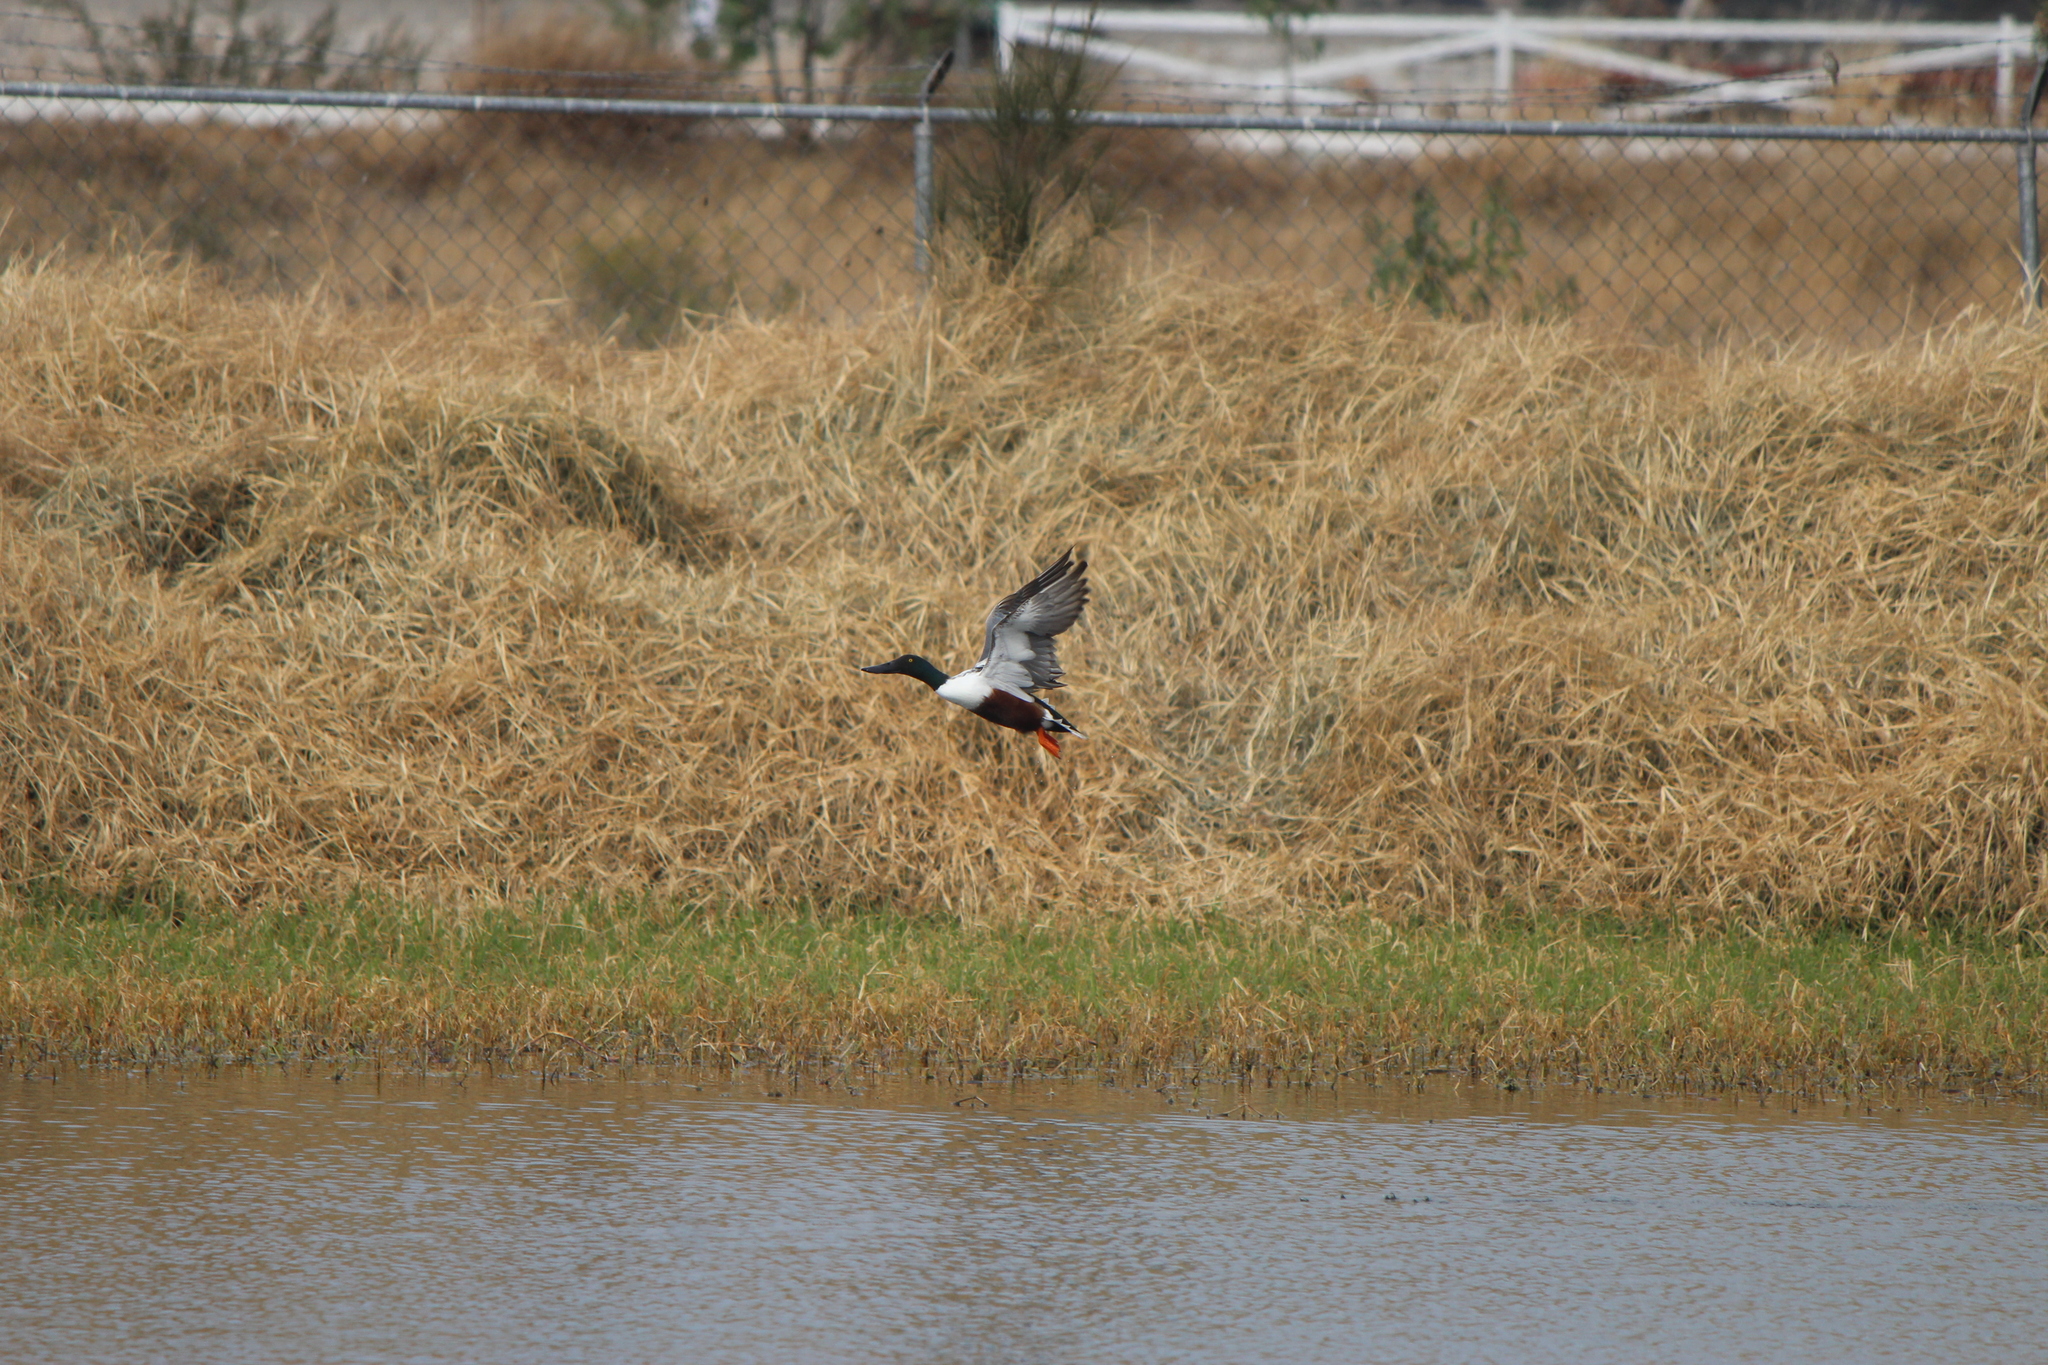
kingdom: Animalia
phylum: Chordata
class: Aves
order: Anseriformes
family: Anatidae
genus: Spatula
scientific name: Spatula clypeata
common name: Northern shoveler
